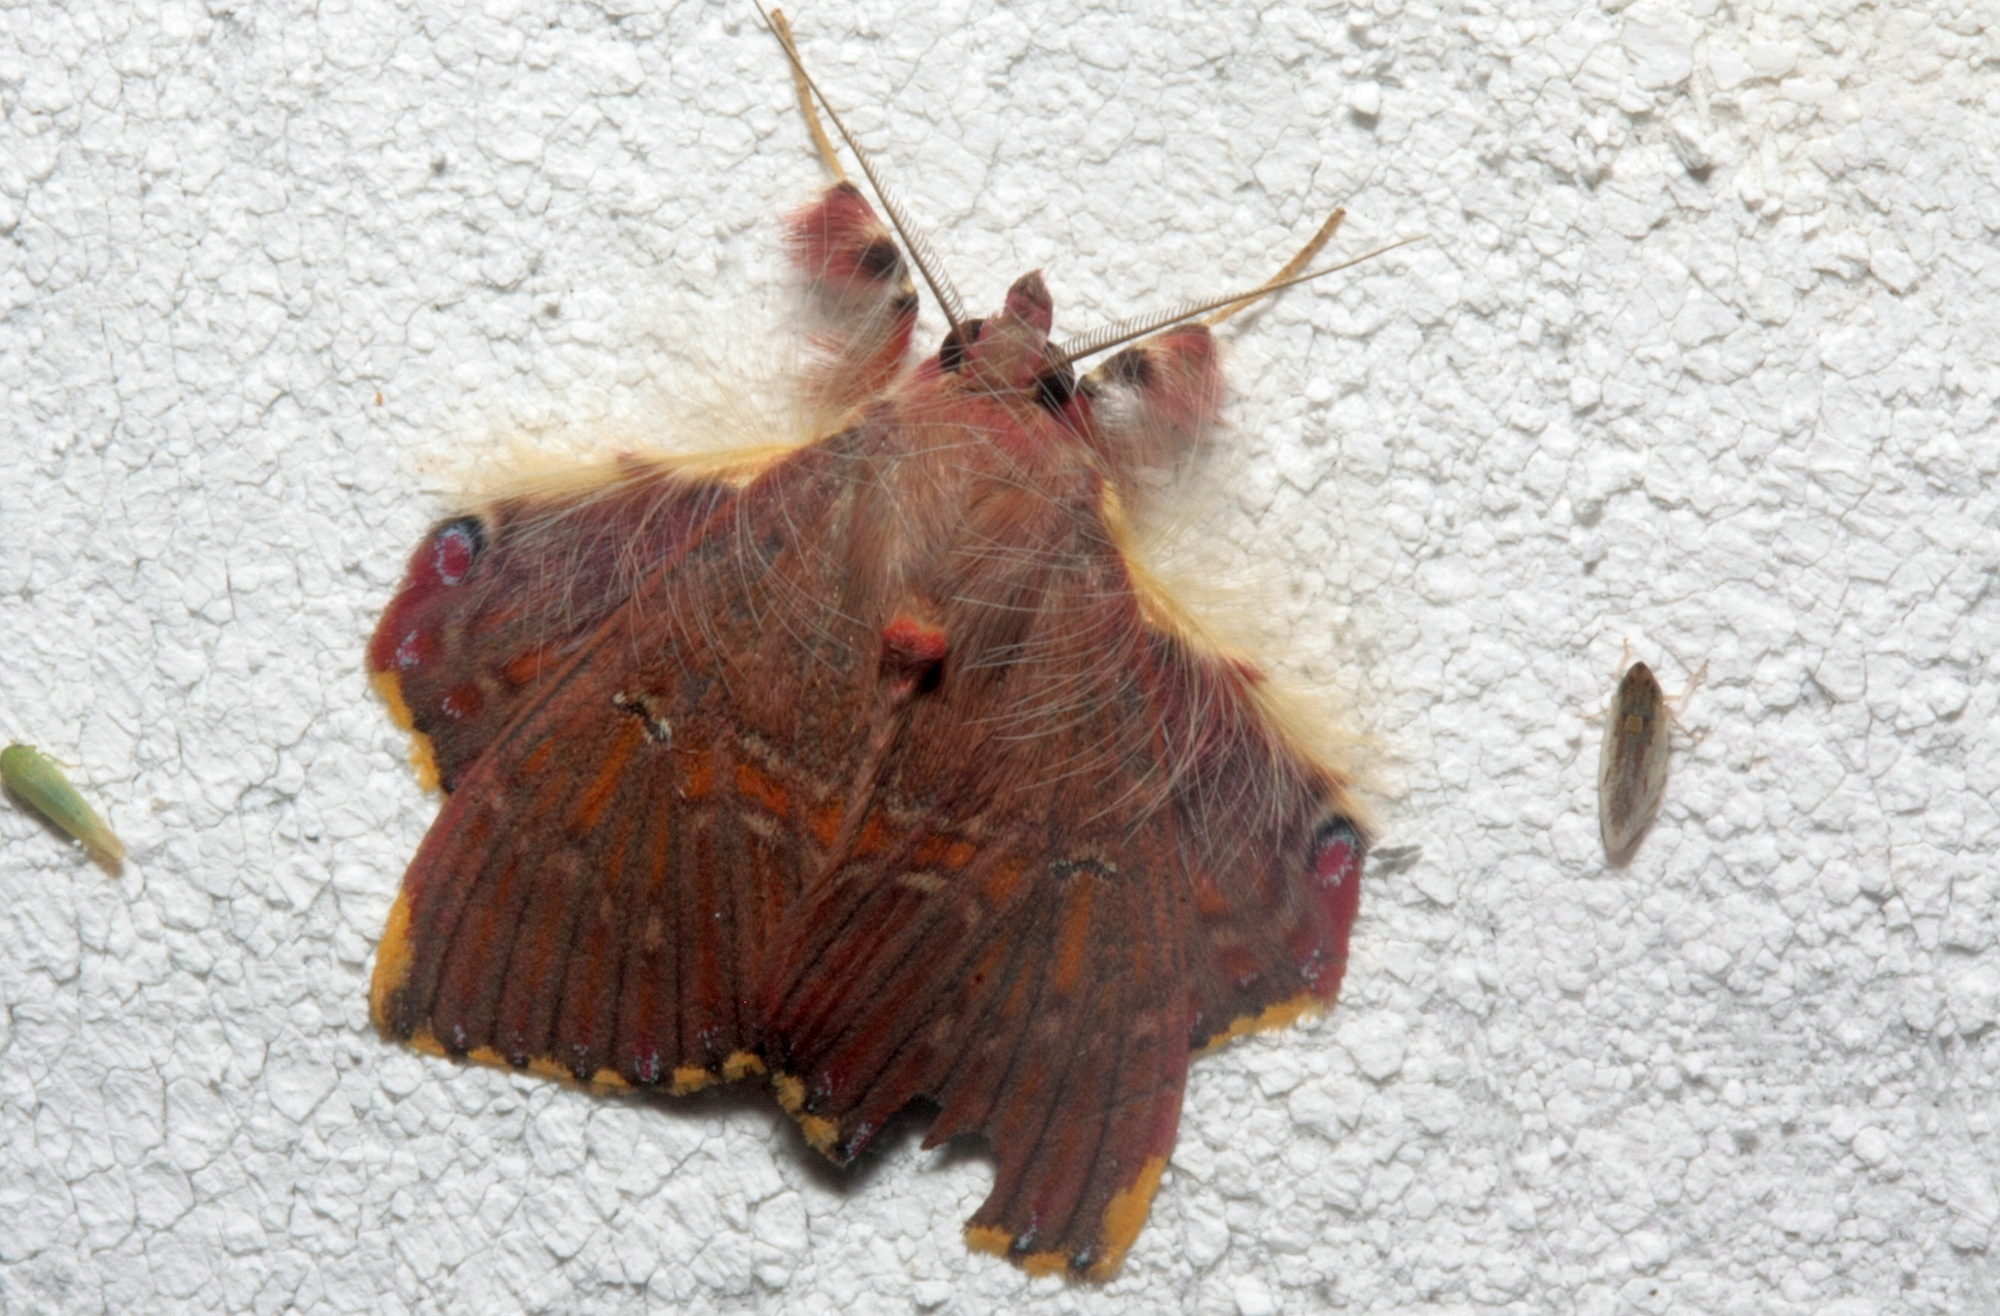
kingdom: Animalia
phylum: Arthropoda
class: Insecta
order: Lepidoptera
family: Erebidae
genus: Sosxetra
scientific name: Sosxetra grata
